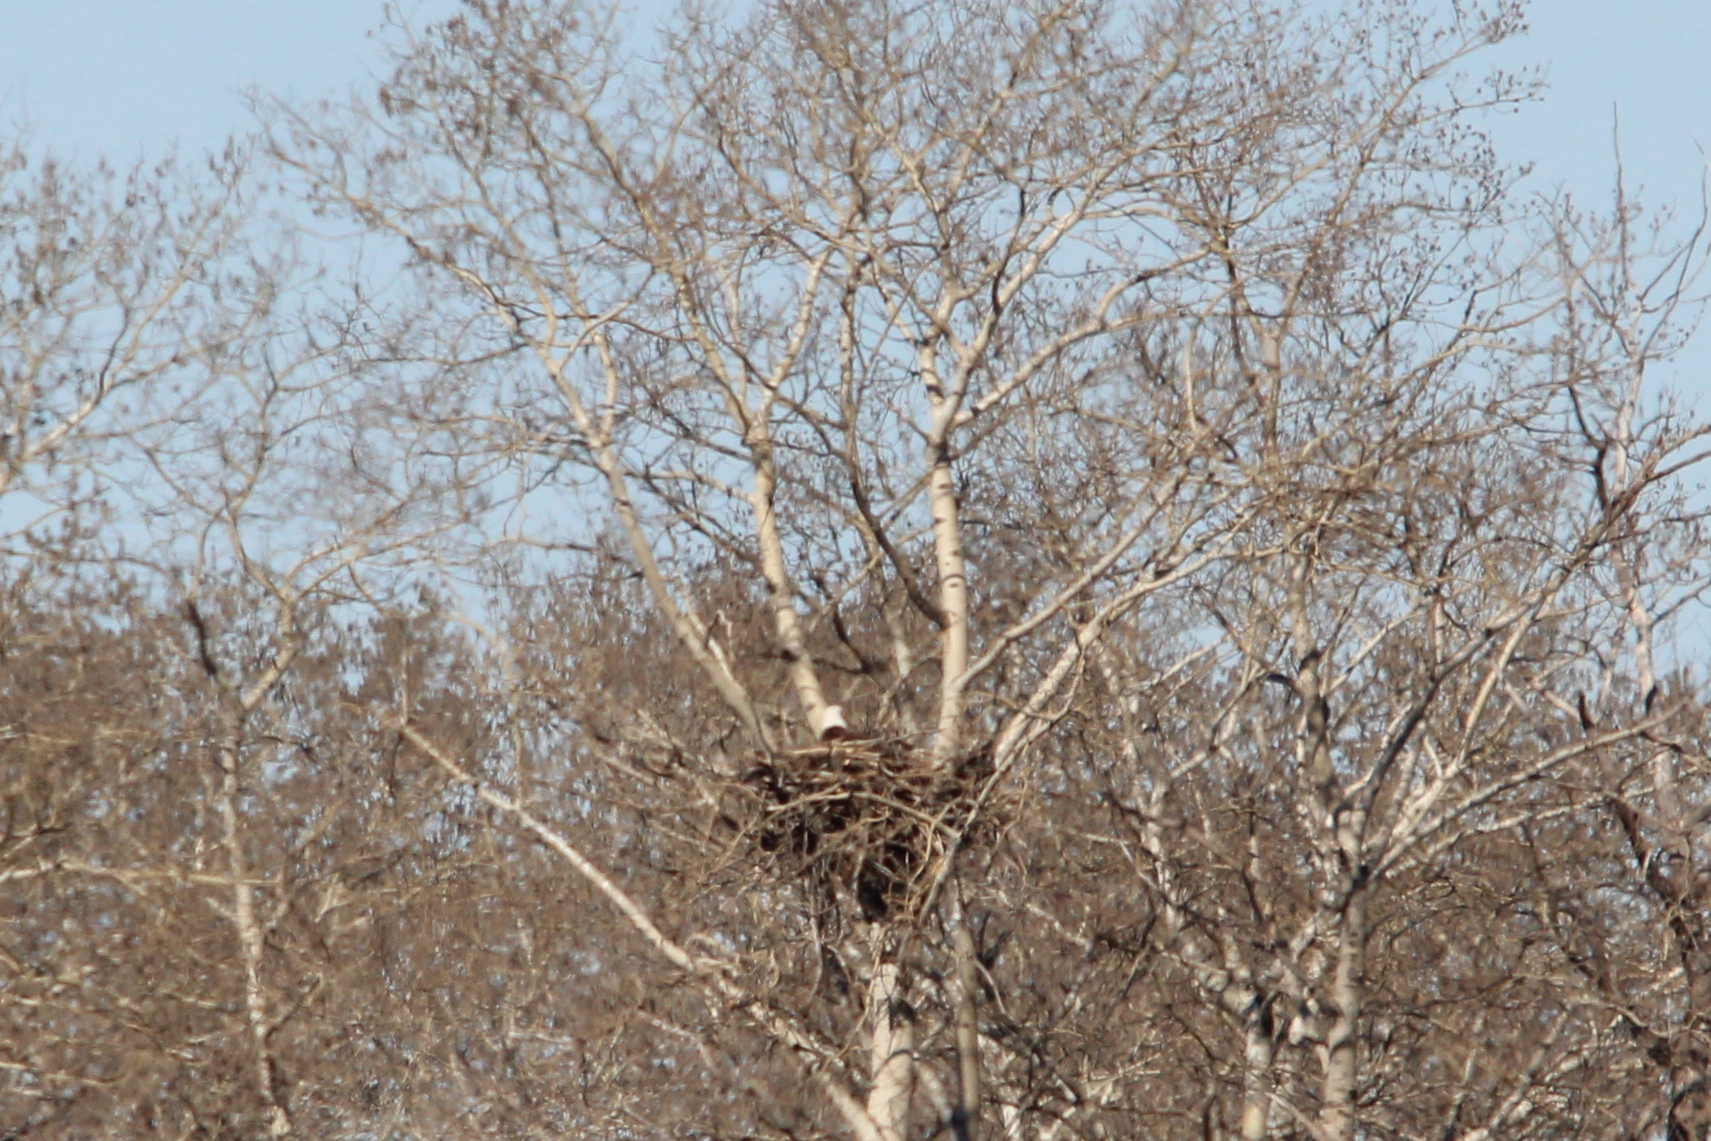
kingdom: Animalia
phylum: Chordata
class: Aves
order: Accipitriformes
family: Accipitridae
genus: Haliaeetus
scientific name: Haliaeetus leucocephalus
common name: Bald eagle
